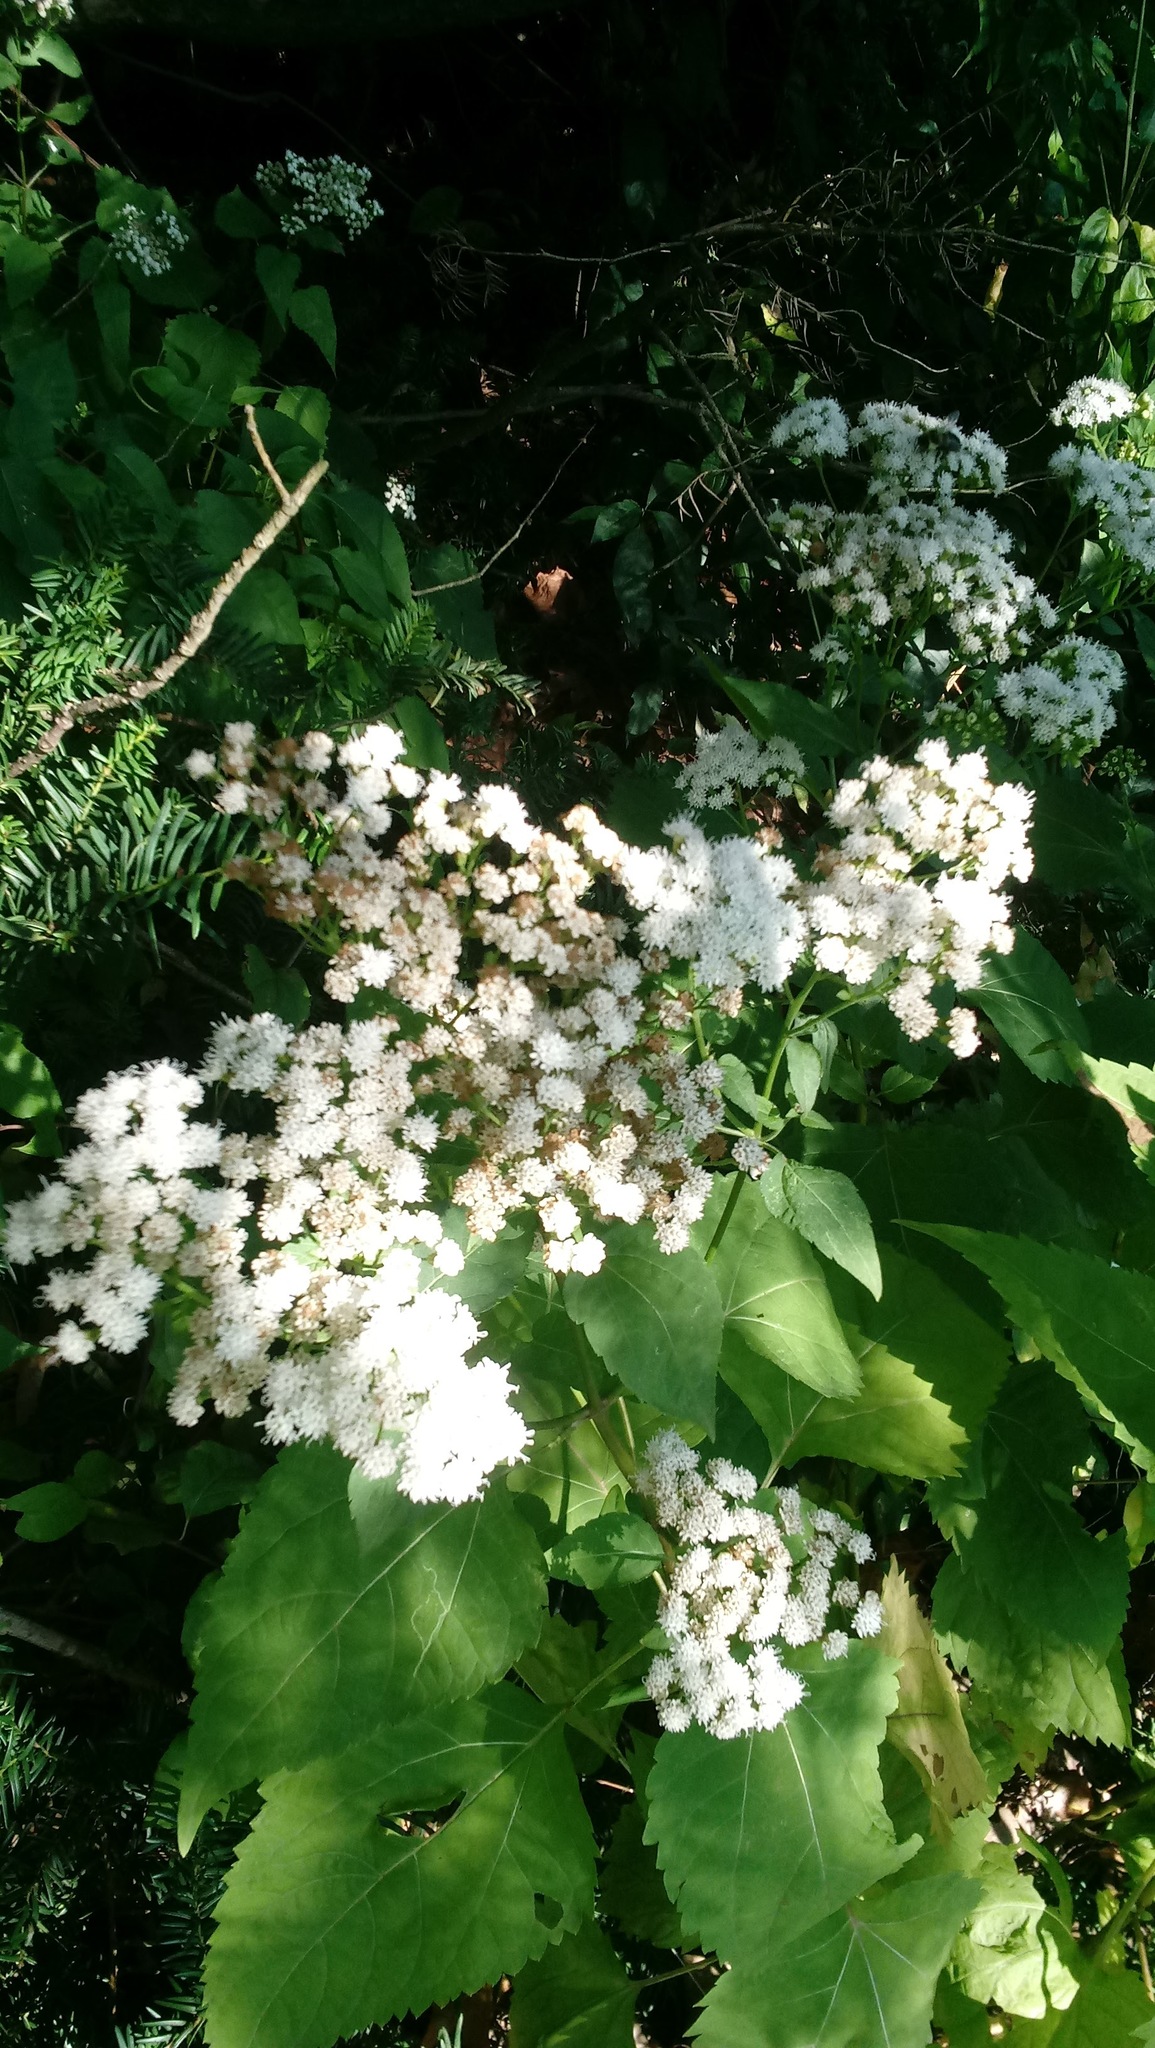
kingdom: Plantae
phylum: Tracheophyta
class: Magnoliopsida
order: Asterales
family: Asteraceae
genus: Ageratina
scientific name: Ageratina altissima
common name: White snakeroot
